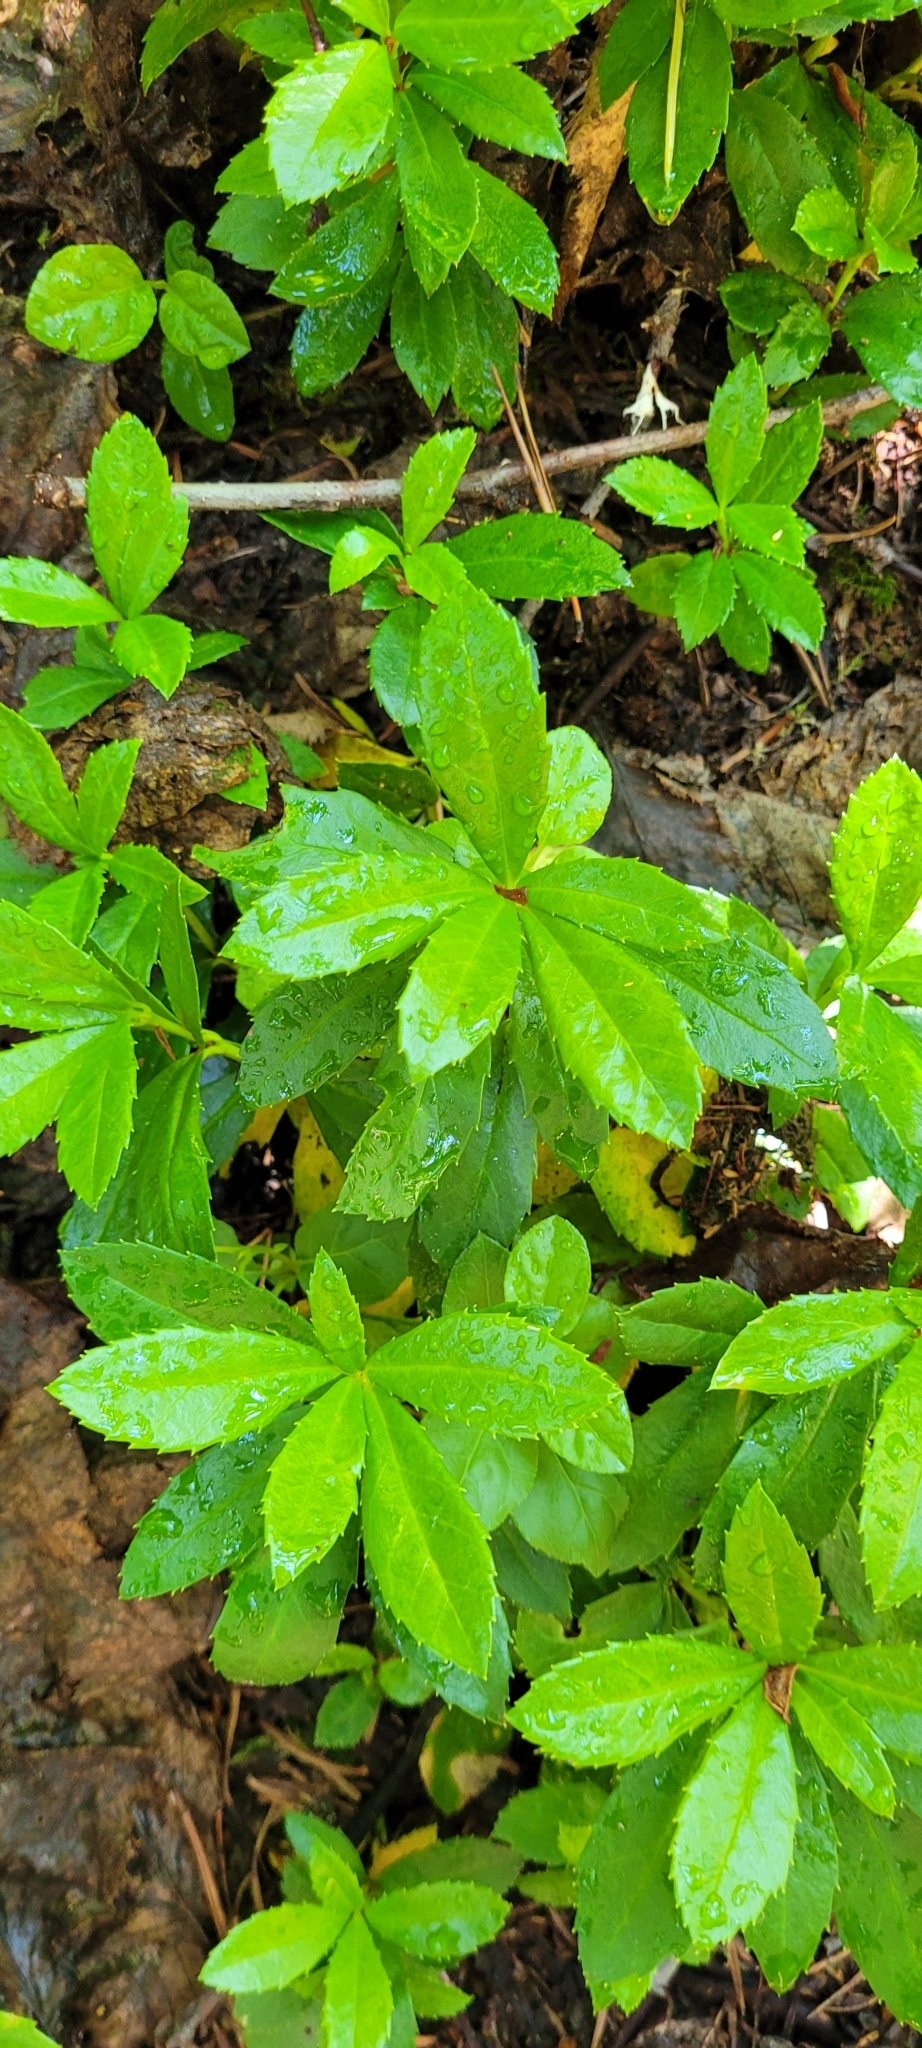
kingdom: Plantae
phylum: Tracheophyta
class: Magnoliopsida
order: Ericales
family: Ericaceae
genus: Chimaphila
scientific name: Chimaphila umbellata
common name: Pipsissewa
